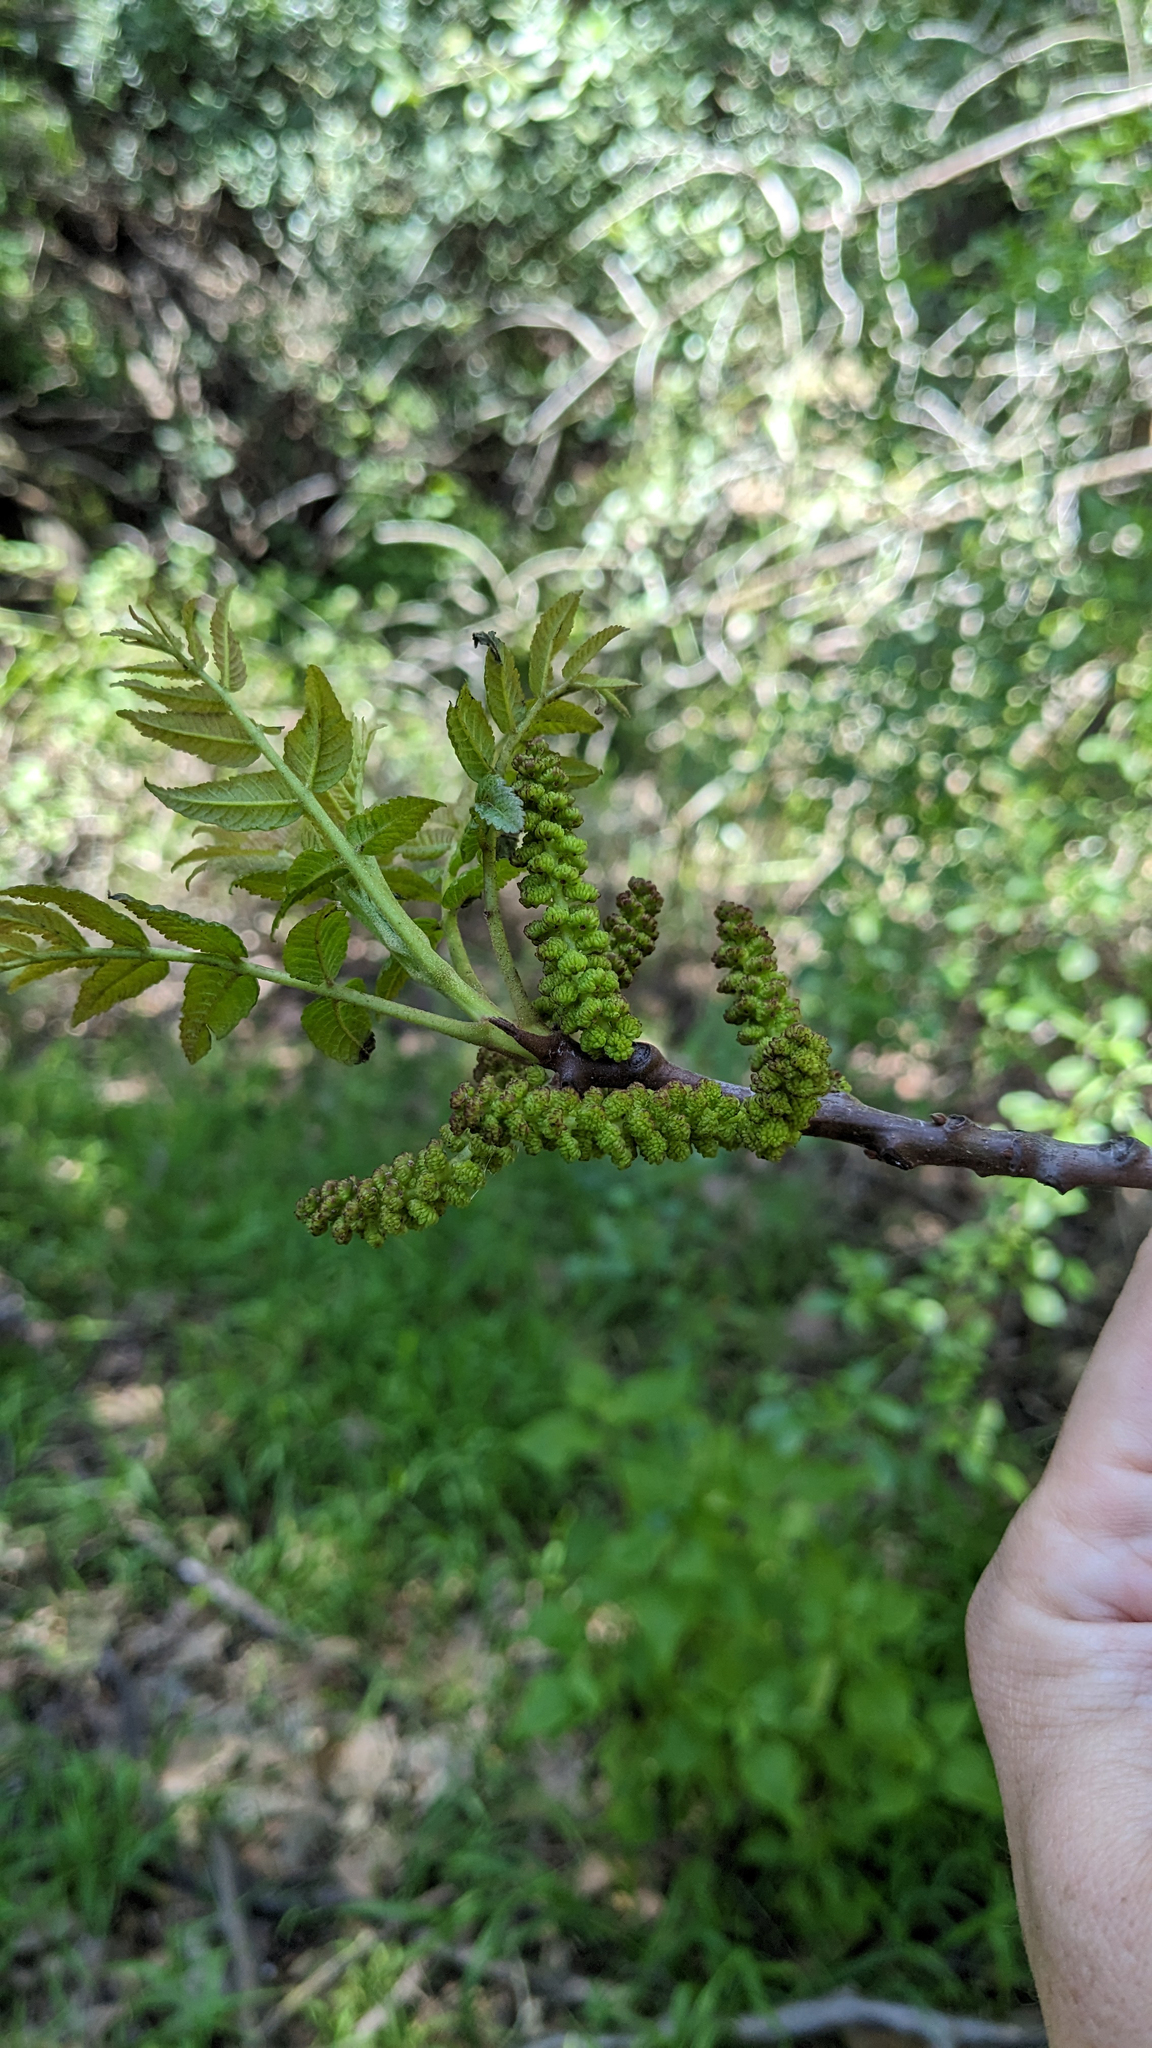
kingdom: Plantae
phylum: Tracheophyta
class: Magnoliopsida
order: Fagales
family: Juglandaceae
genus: Juglans
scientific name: Juglans californica
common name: Southern california black walnut
